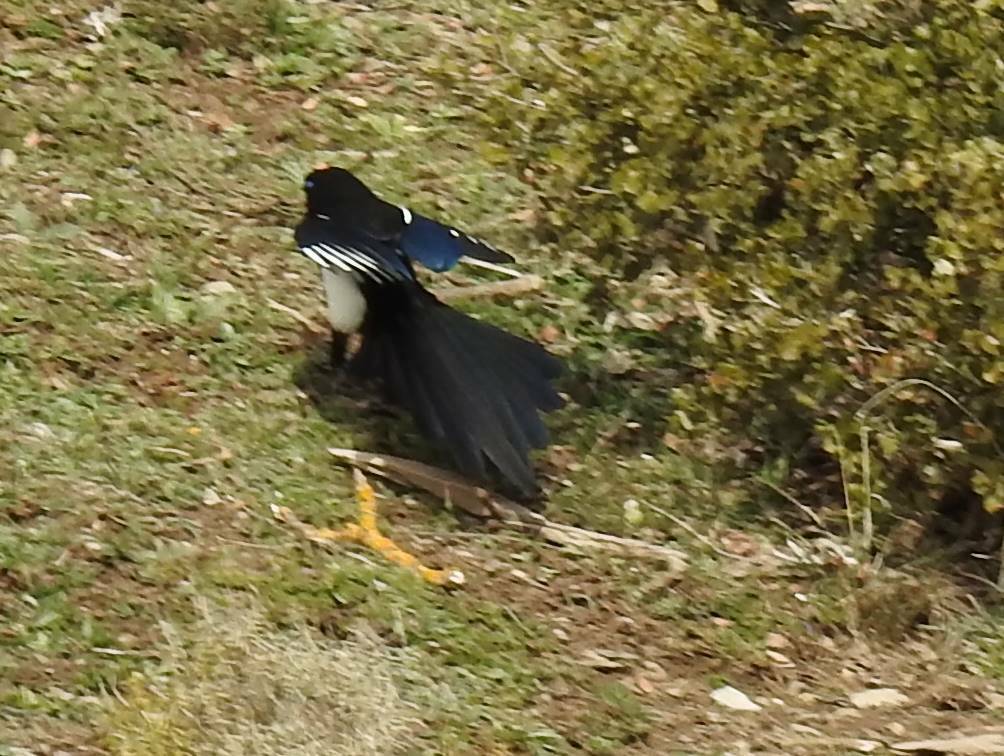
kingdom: Animalia
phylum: Chordata
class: Aves
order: Passeriformes
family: Corvidae
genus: Pica
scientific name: Pica mauritanica
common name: Maghreb magpie
